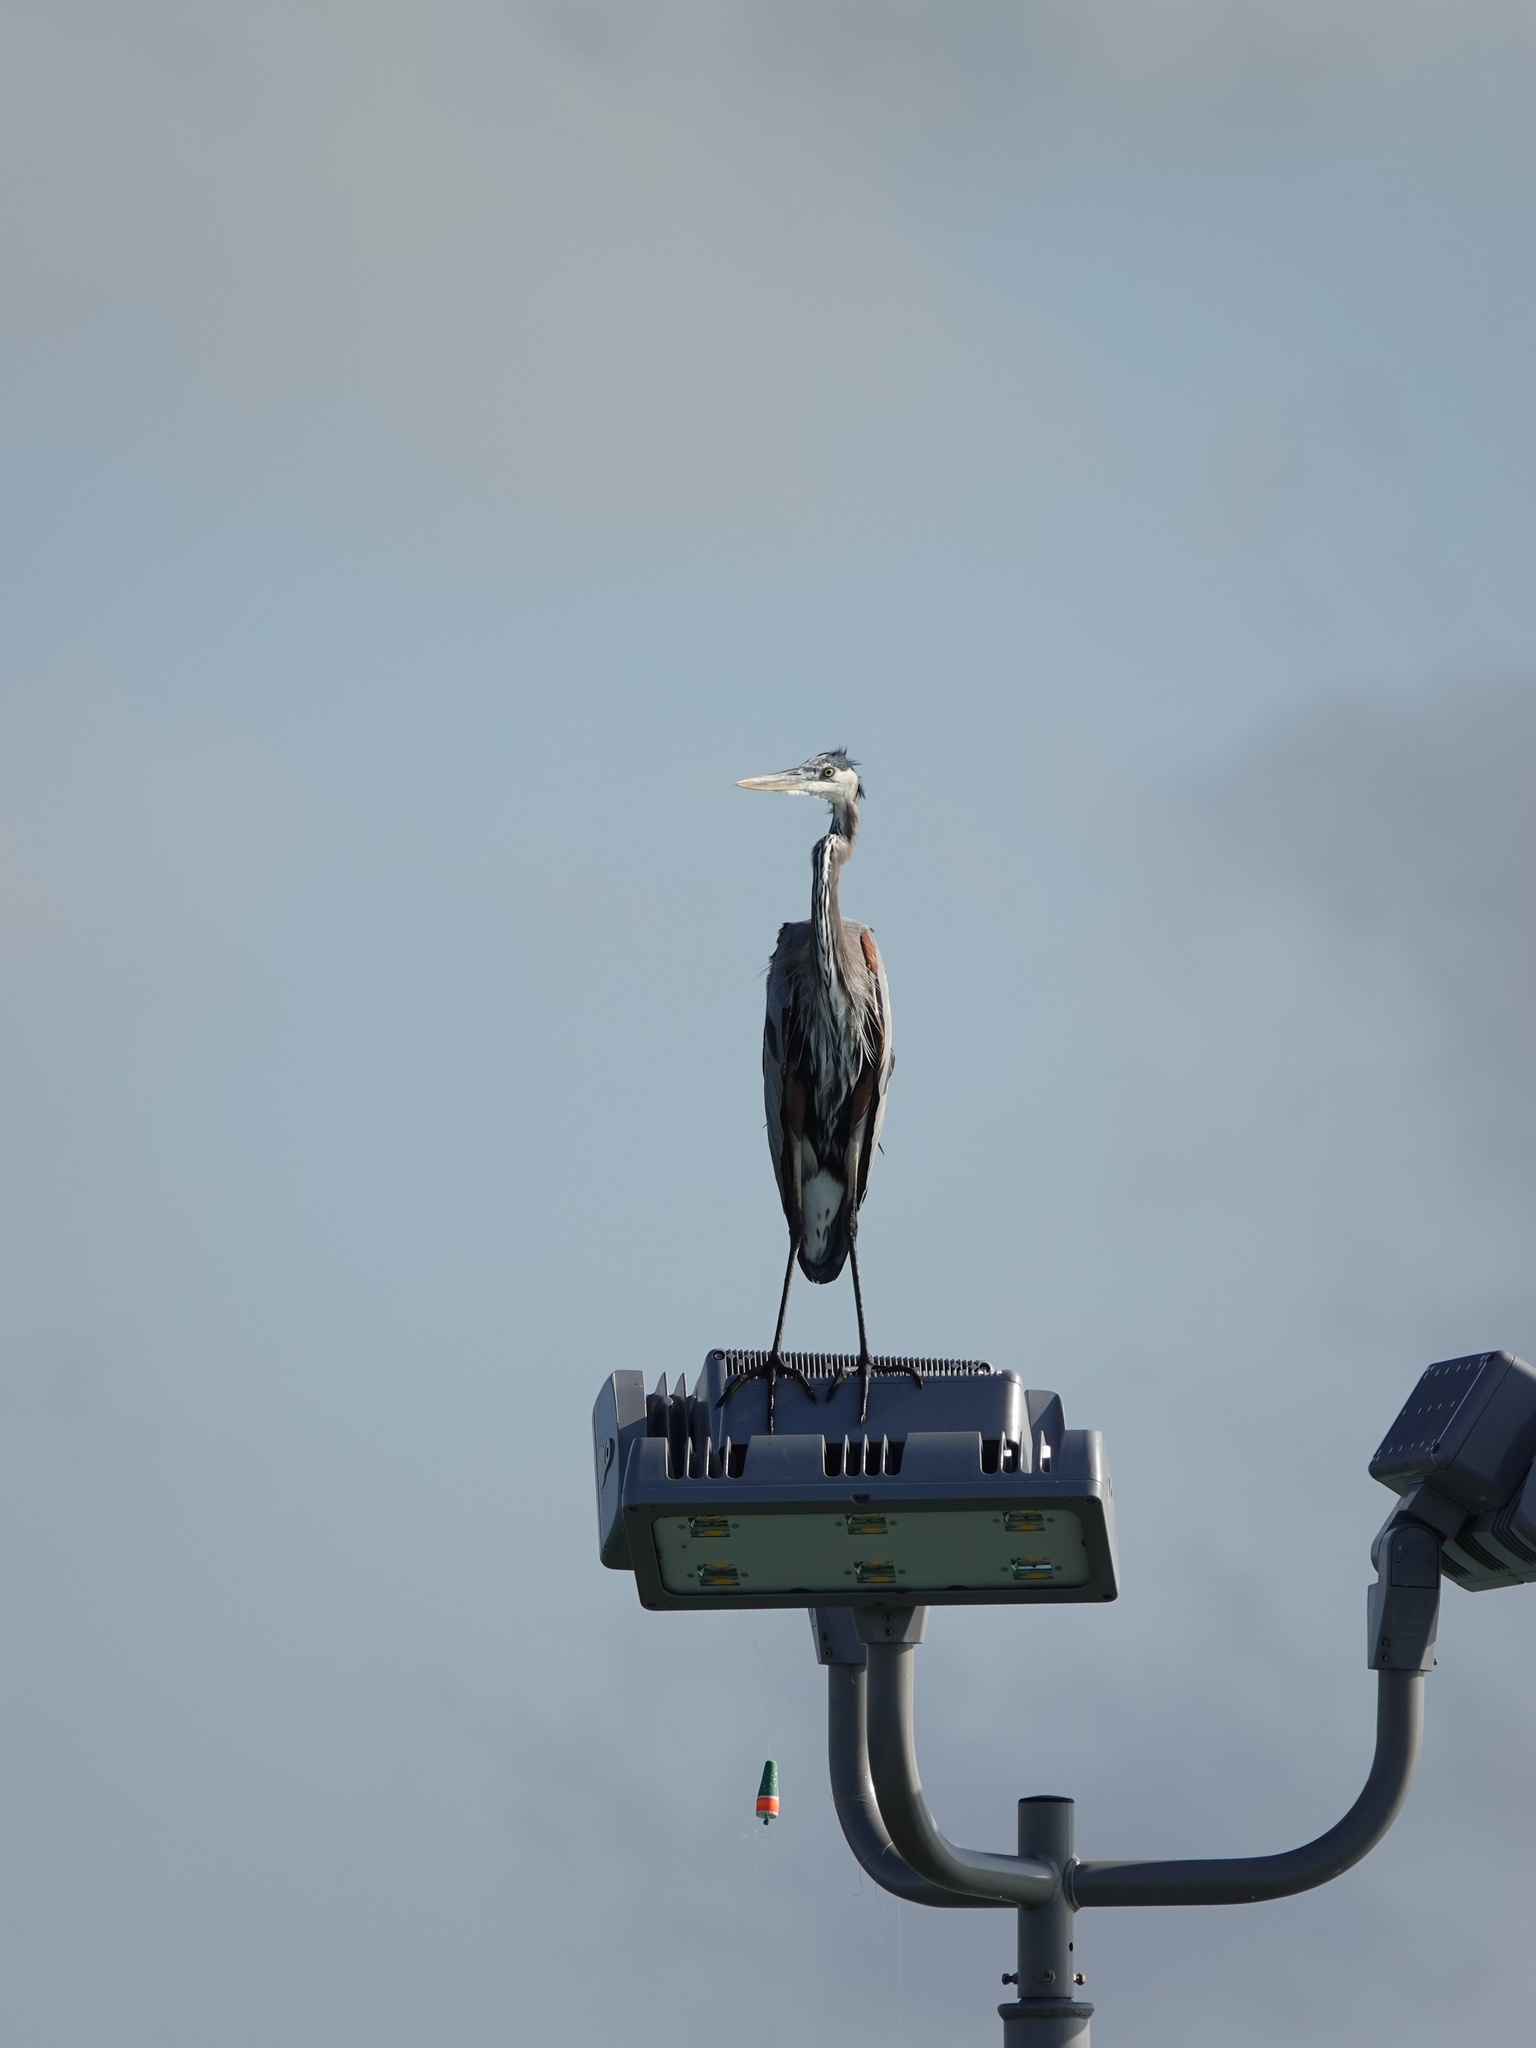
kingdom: Animalia
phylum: Chordata
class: Aves
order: Pelecaniformes
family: Ardeidae
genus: Ardea
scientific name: Ardea herodias
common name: Great blue heron
